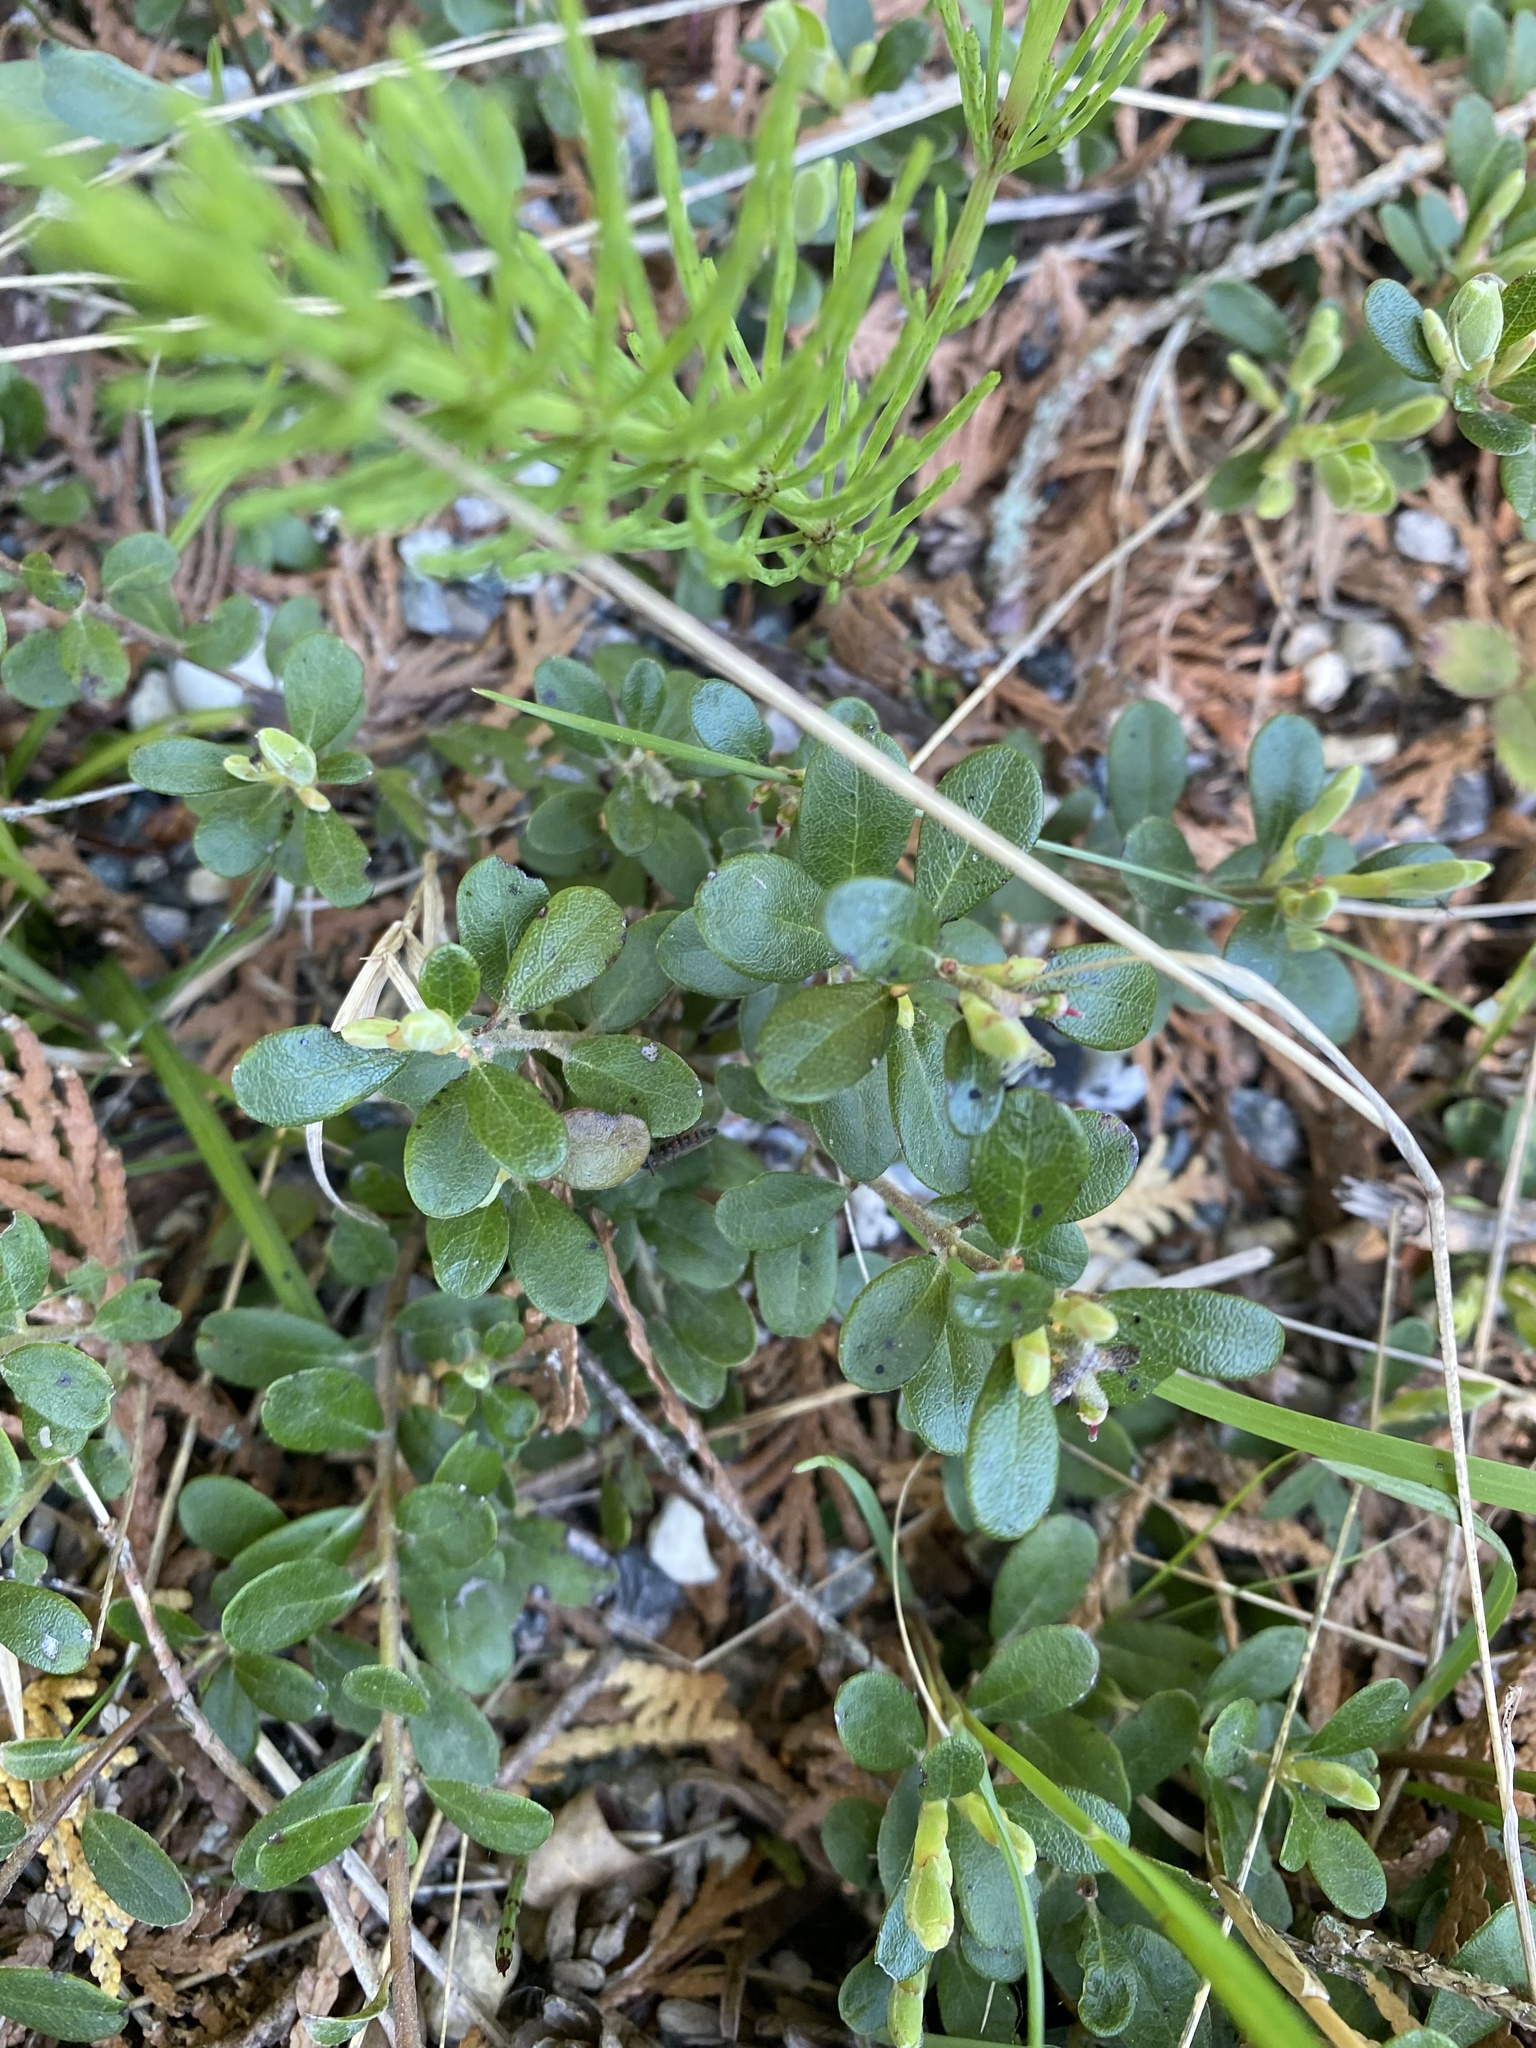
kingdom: Plantae
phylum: Tracheophyta
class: Magnoliopsida
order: Ericales
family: Ericaceae
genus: Arctostaphylos
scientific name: Arctostaphylos uva-ursi
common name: Bearberry
